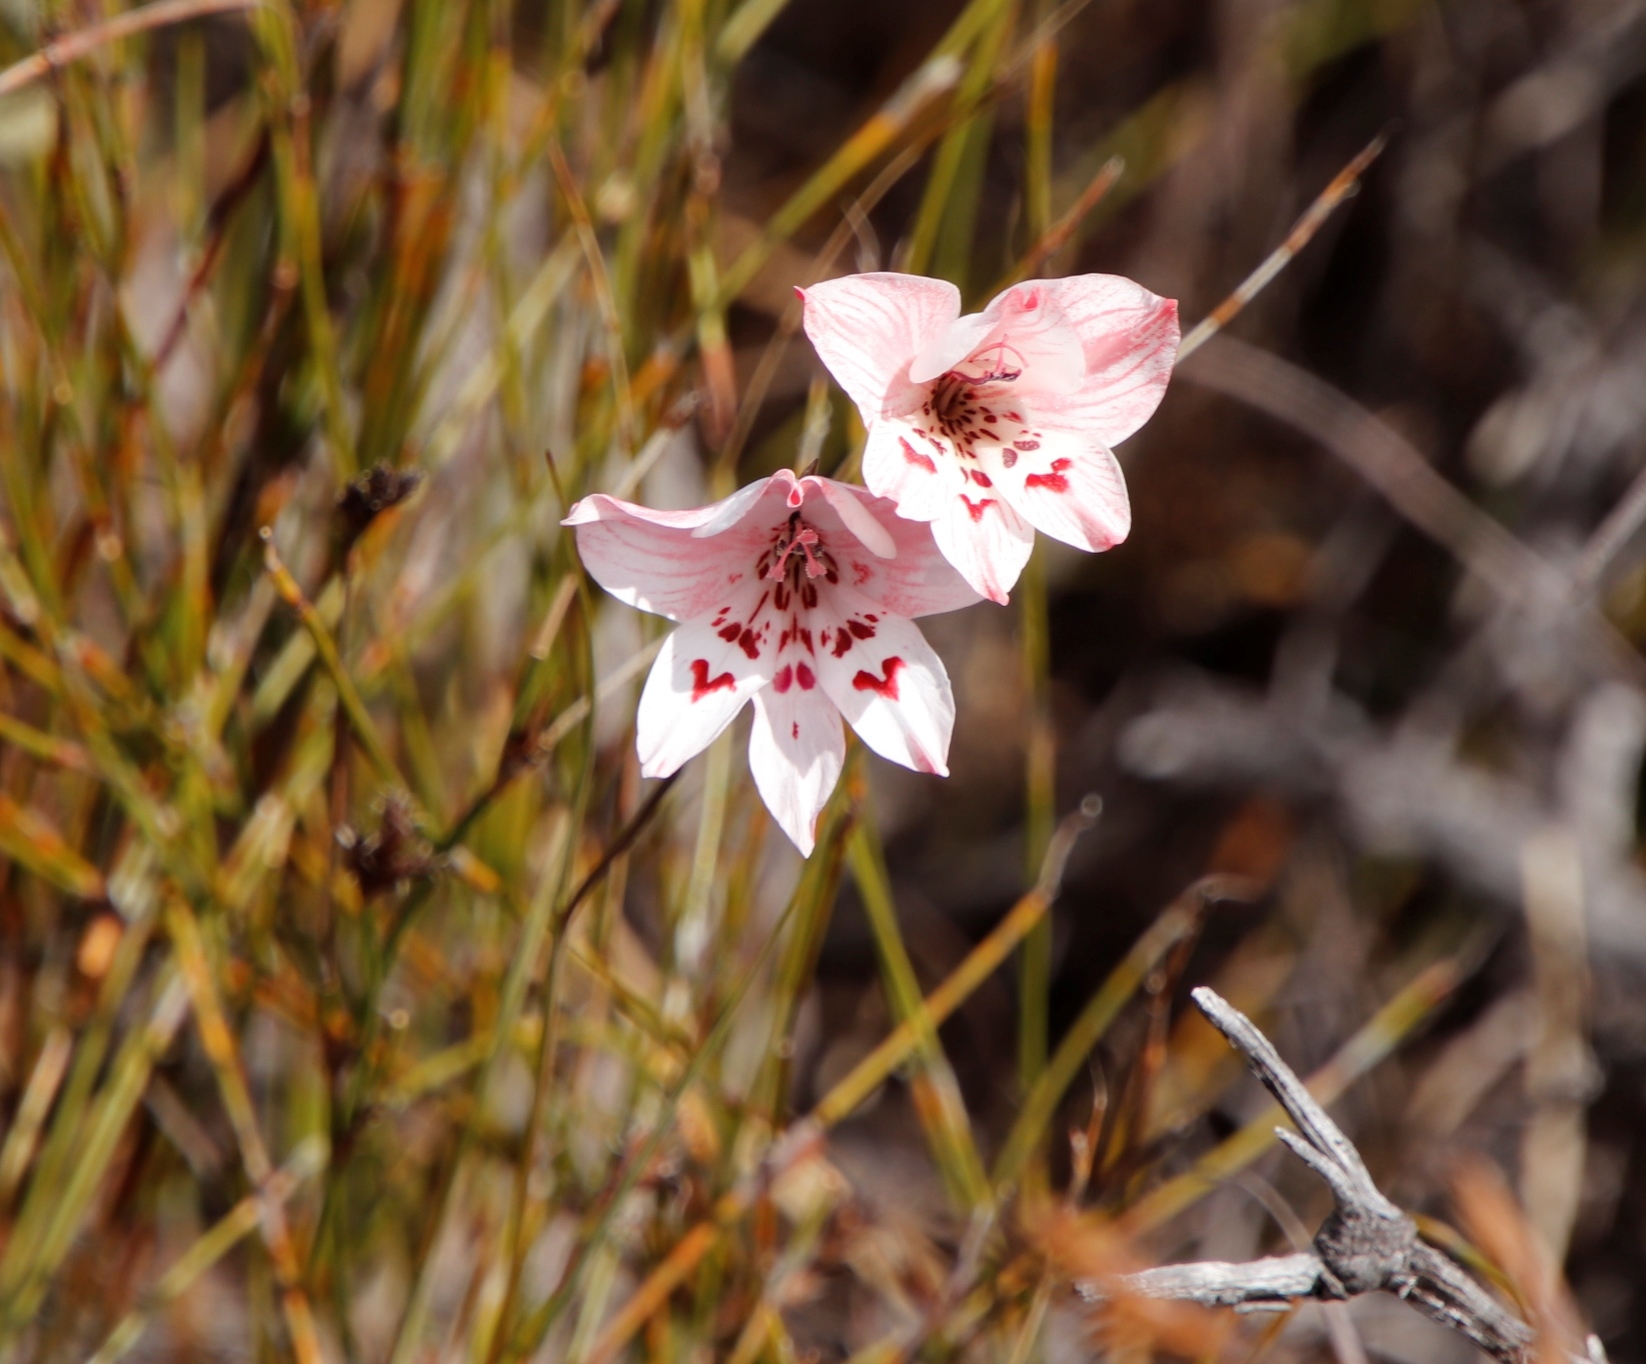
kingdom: Plantae
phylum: Tracheophyta
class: Liliopsida
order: Asparagales
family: Iridaceae
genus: Gladiolus
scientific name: Gladiolus debilis
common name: Painted-lady
